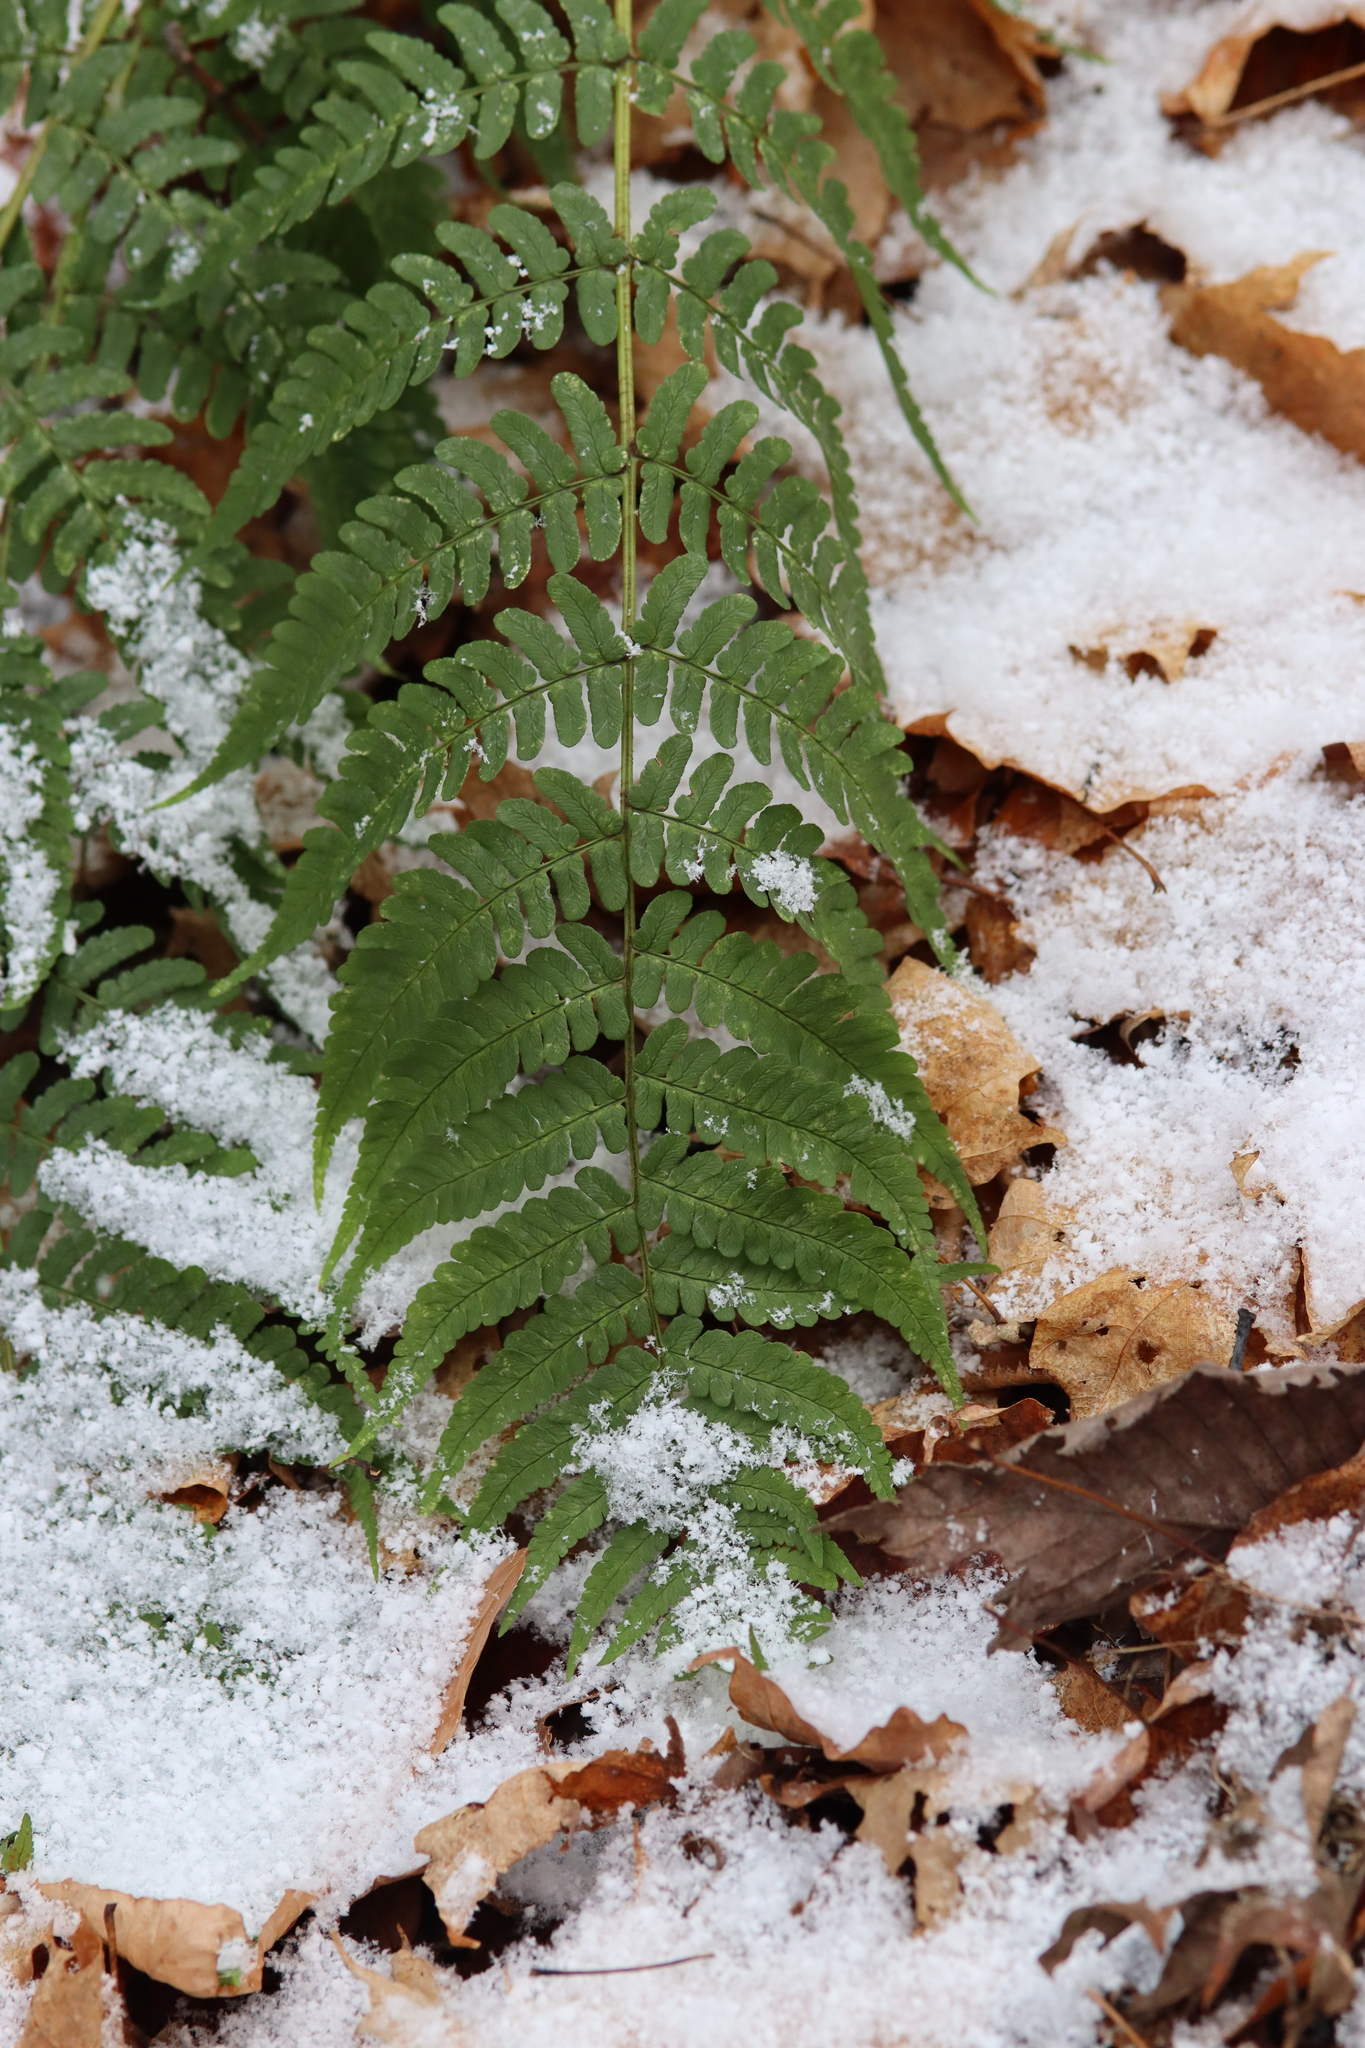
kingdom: Plantae
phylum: Tracheophyta
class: Polypodiopsida
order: Polypodiales
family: Dryopteridaceae
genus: Dryopteris
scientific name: Dryopteris marginalis
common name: Marginal wood fern
